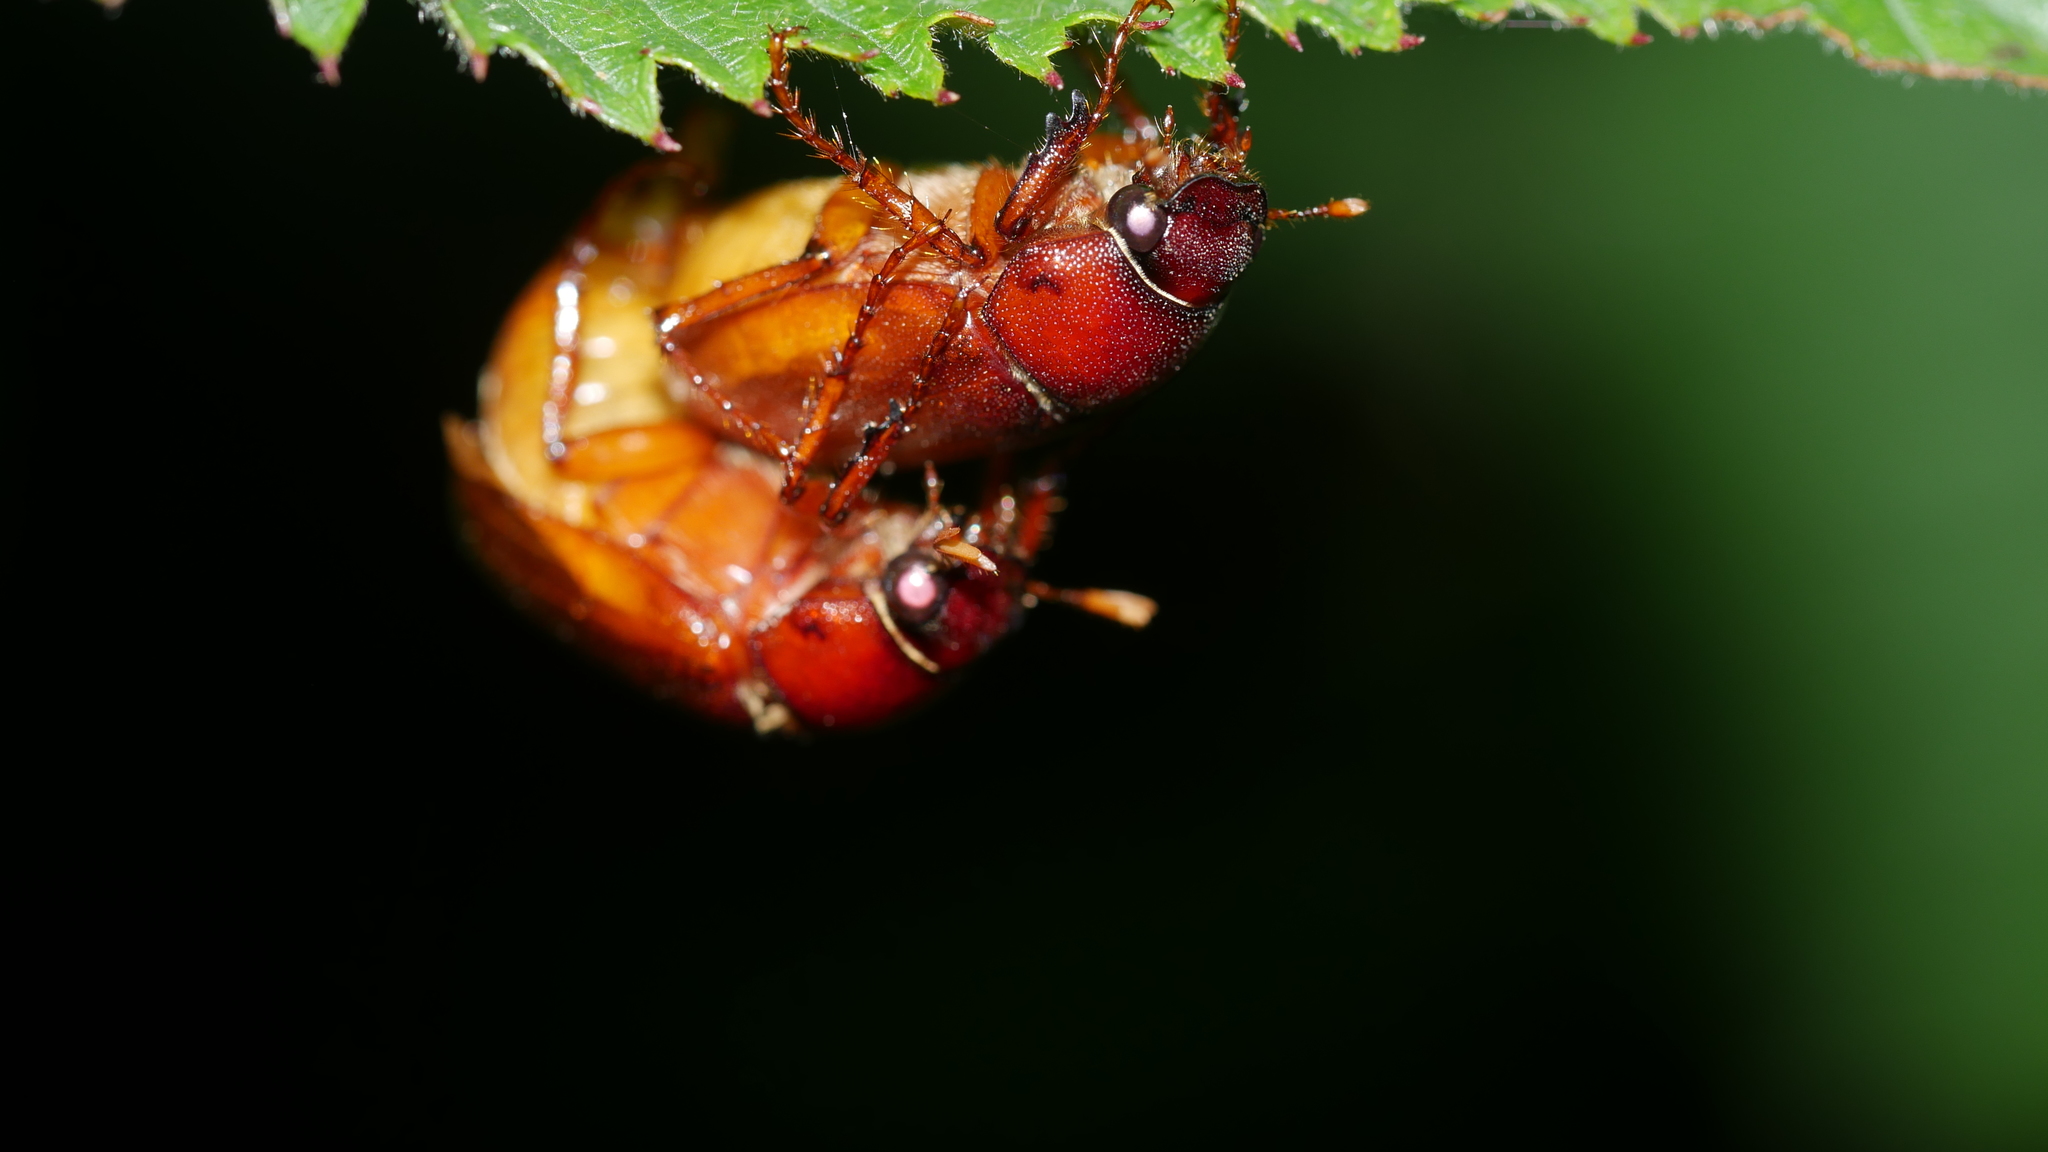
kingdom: Animalia
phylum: Arthropoda
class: Insecta
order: Coleoptera
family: Scarabaeidae
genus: Phyllophaga
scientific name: Phyllophaga
